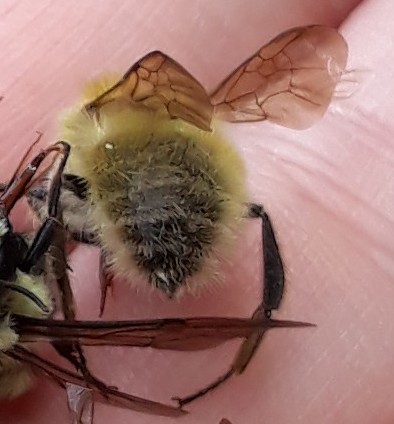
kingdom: Animalia
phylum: Arthropoda
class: Insecta
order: Hymenoptera
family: Apidae
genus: Bombus
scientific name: Bombus perplexus
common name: Confusing bumble bee
